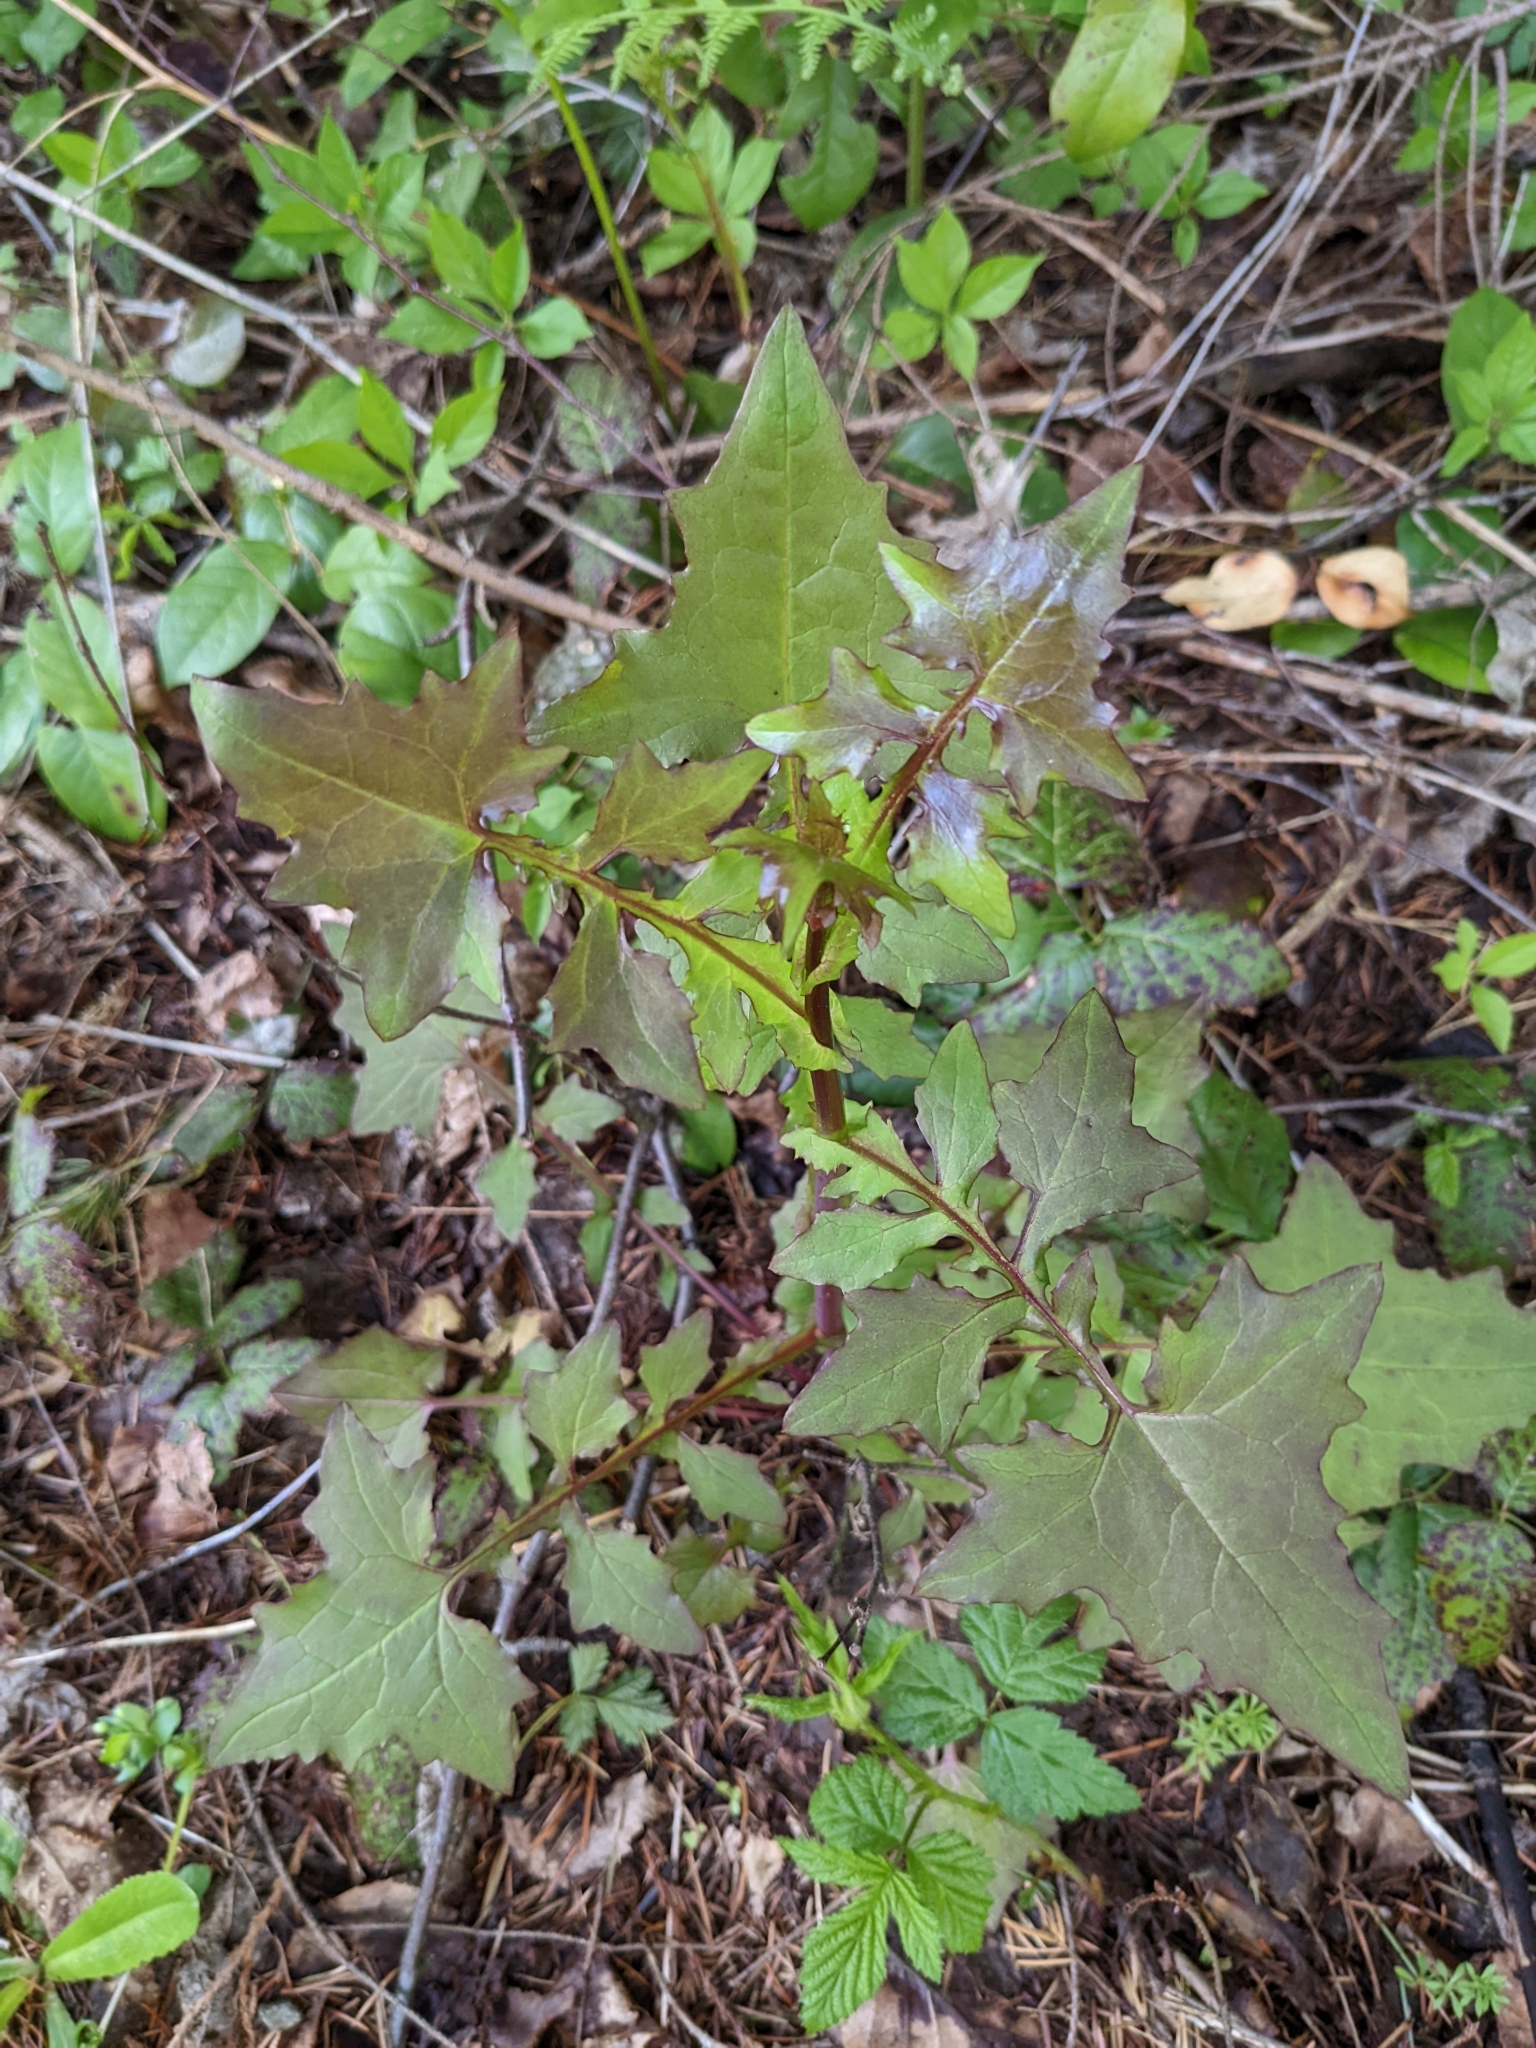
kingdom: Plantae
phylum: Tracheophyta
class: Magnoliopsida
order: Asterales
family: Asteraceae
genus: Mycelis
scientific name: Mycelis muralis
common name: Wall lettuce
